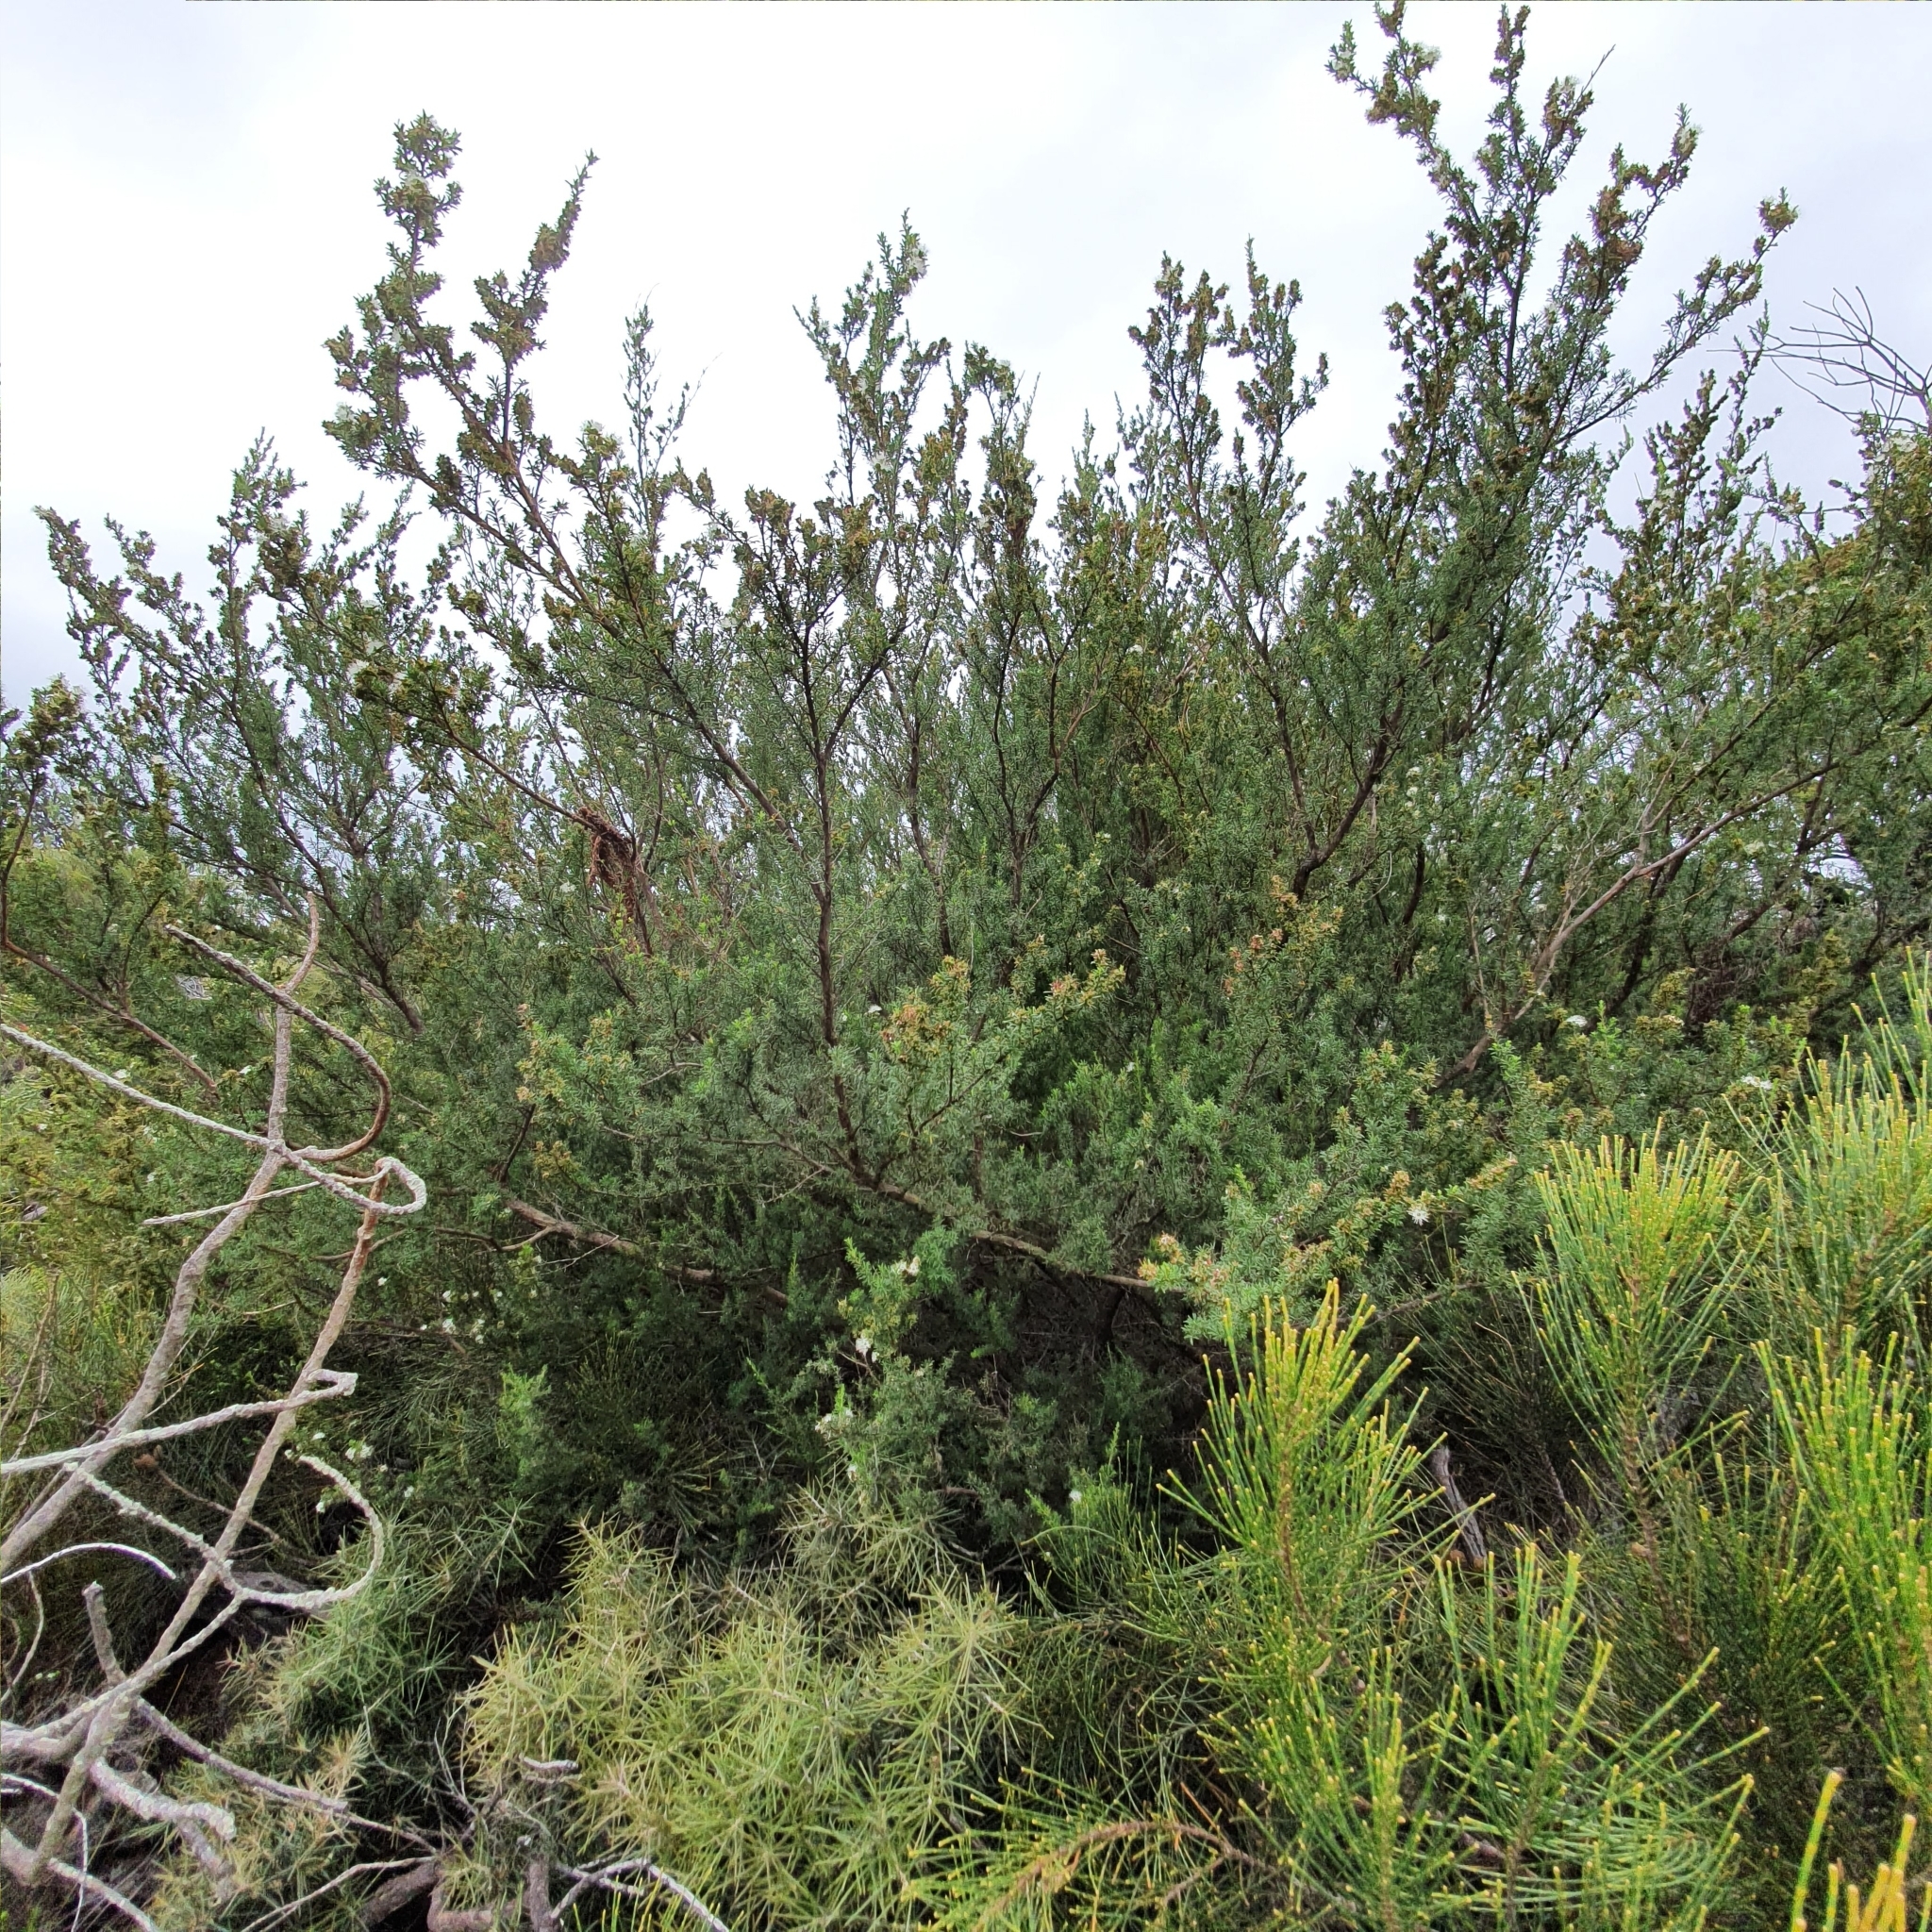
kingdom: Plantae
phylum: Tracheophyta
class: Magnoliopsida
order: Myrtales
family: Myrtaceae
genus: Kunzea
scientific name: Kunzea ambigua
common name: Tickbush
